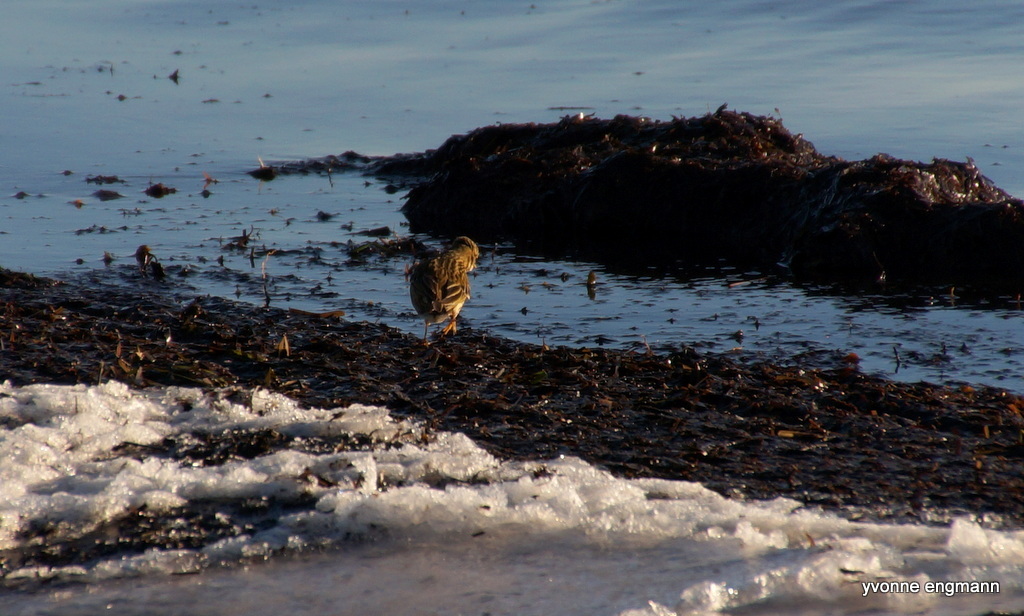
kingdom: Animalia
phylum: Chordata
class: Aves
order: Passeriformes
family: Motacillidae
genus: Anthus
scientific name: Anthus pratensis
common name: Meadow pipit
